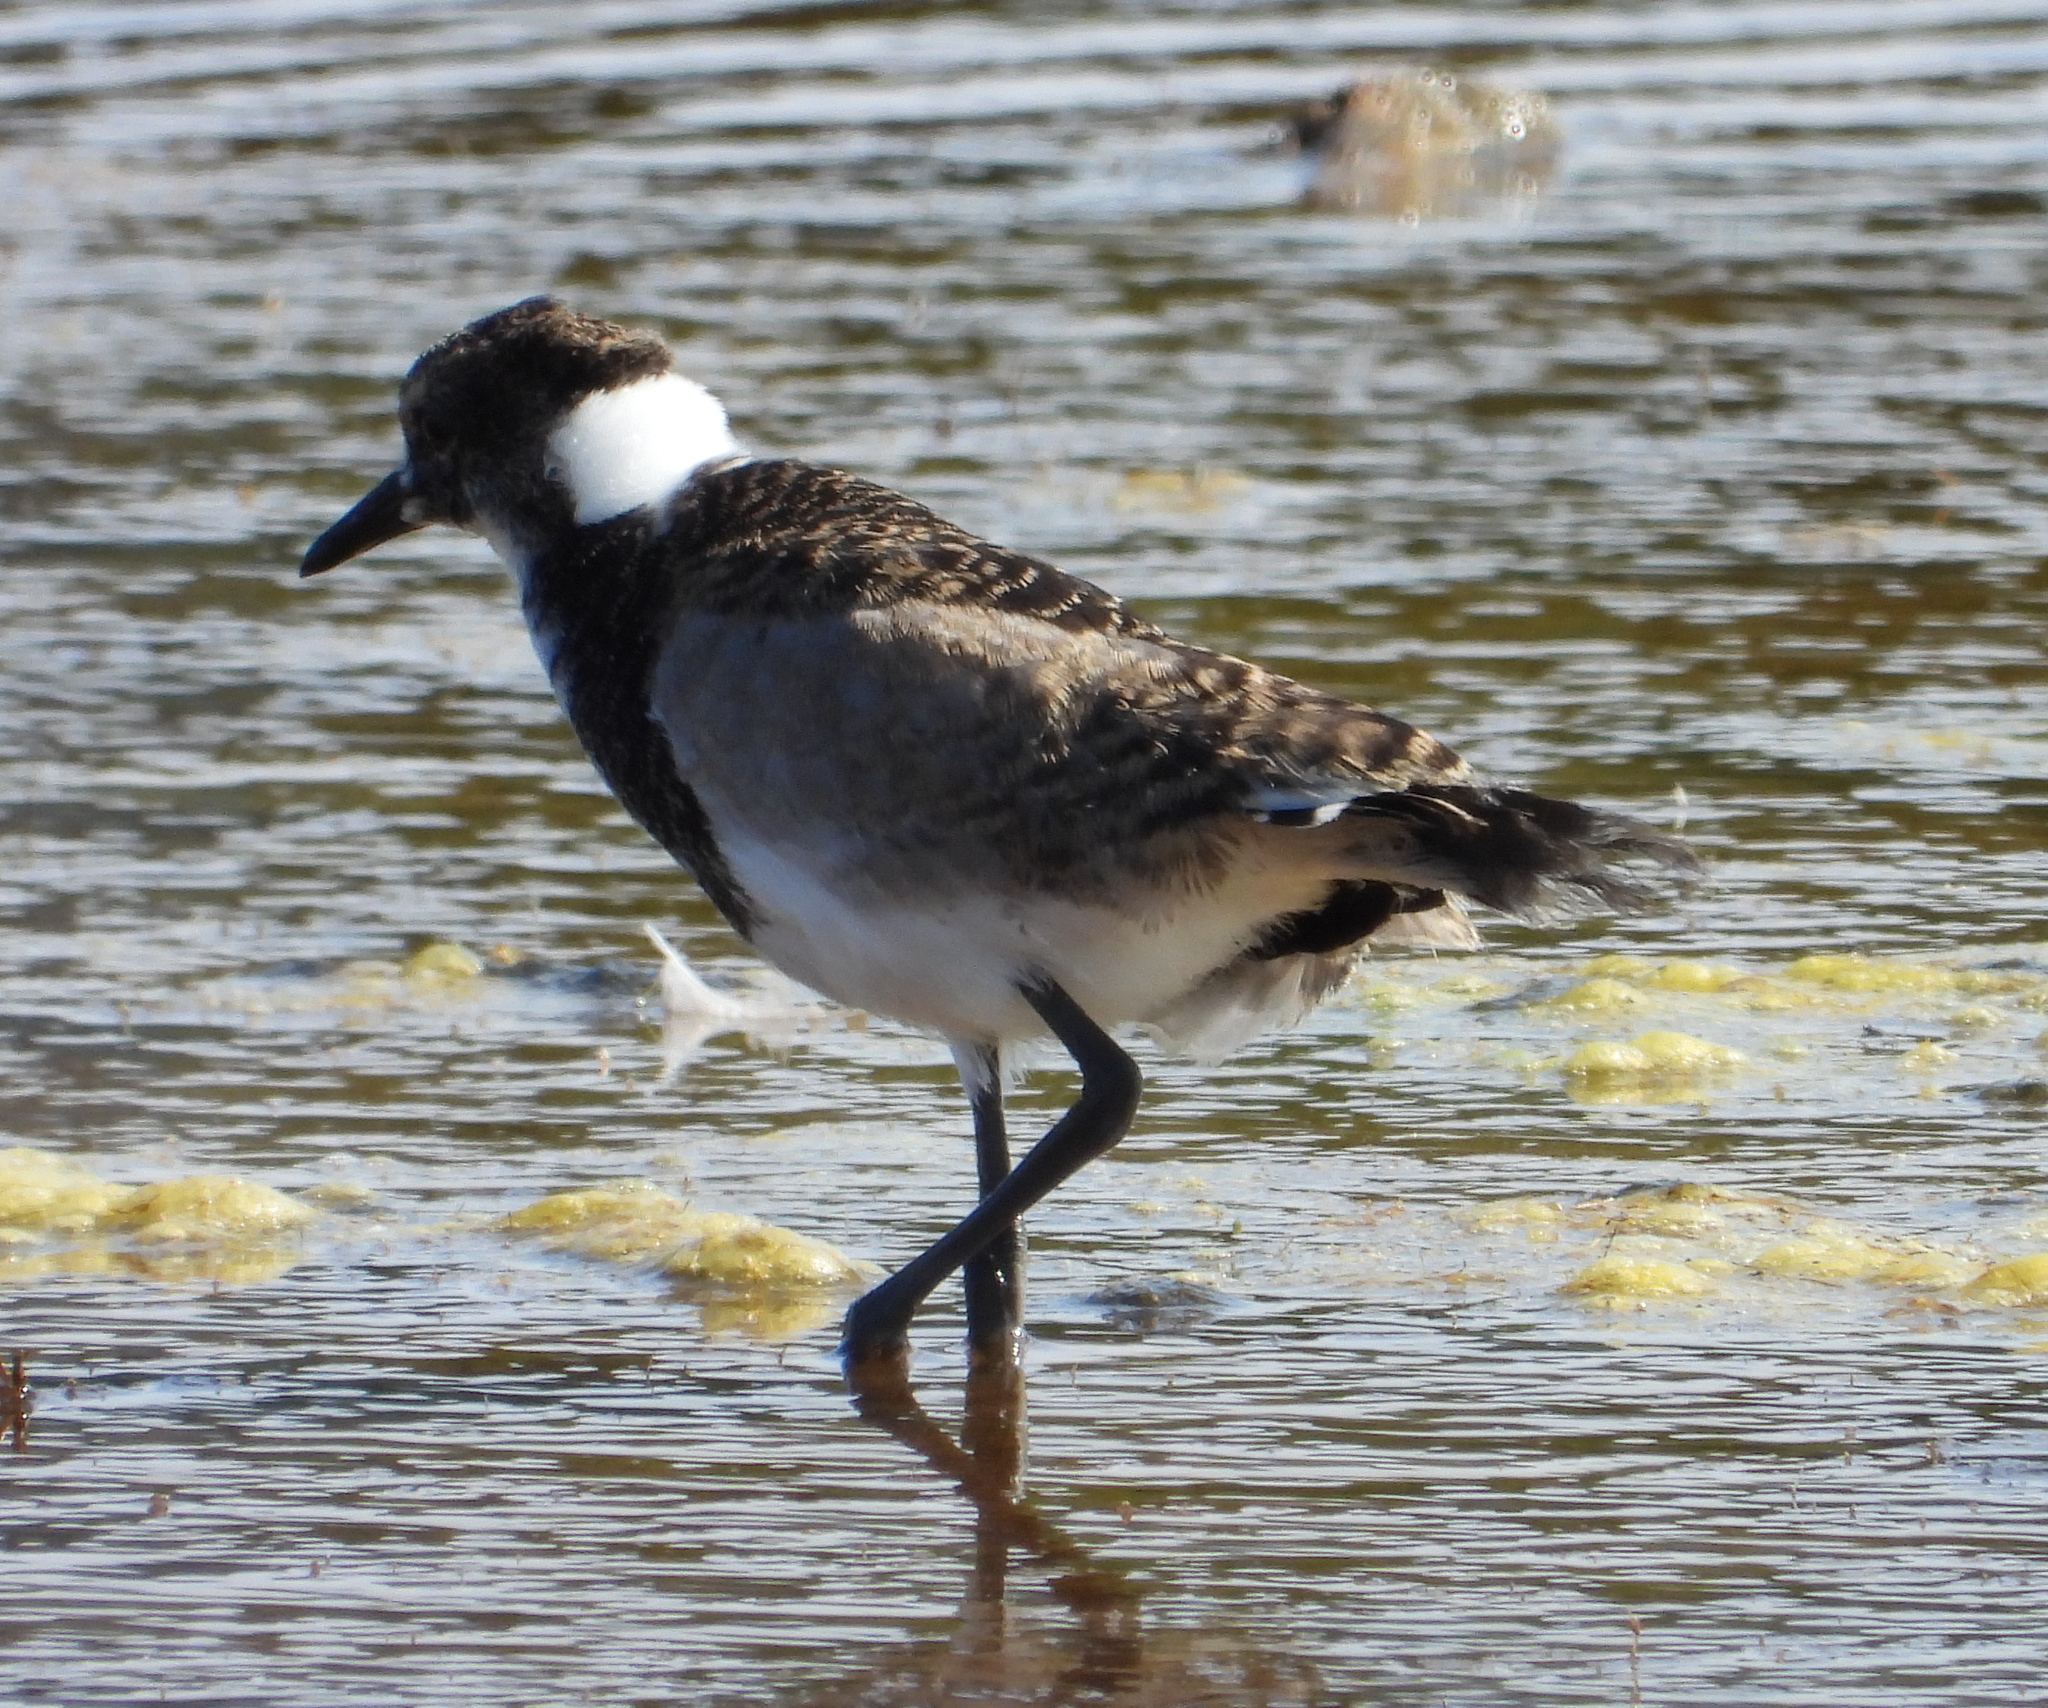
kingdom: Animalia
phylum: Chordata
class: Aves
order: Charadriiformes
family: Charadriidae
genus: Vanellus
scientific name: Vanellus armatus
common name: Blacksmith lapwing
